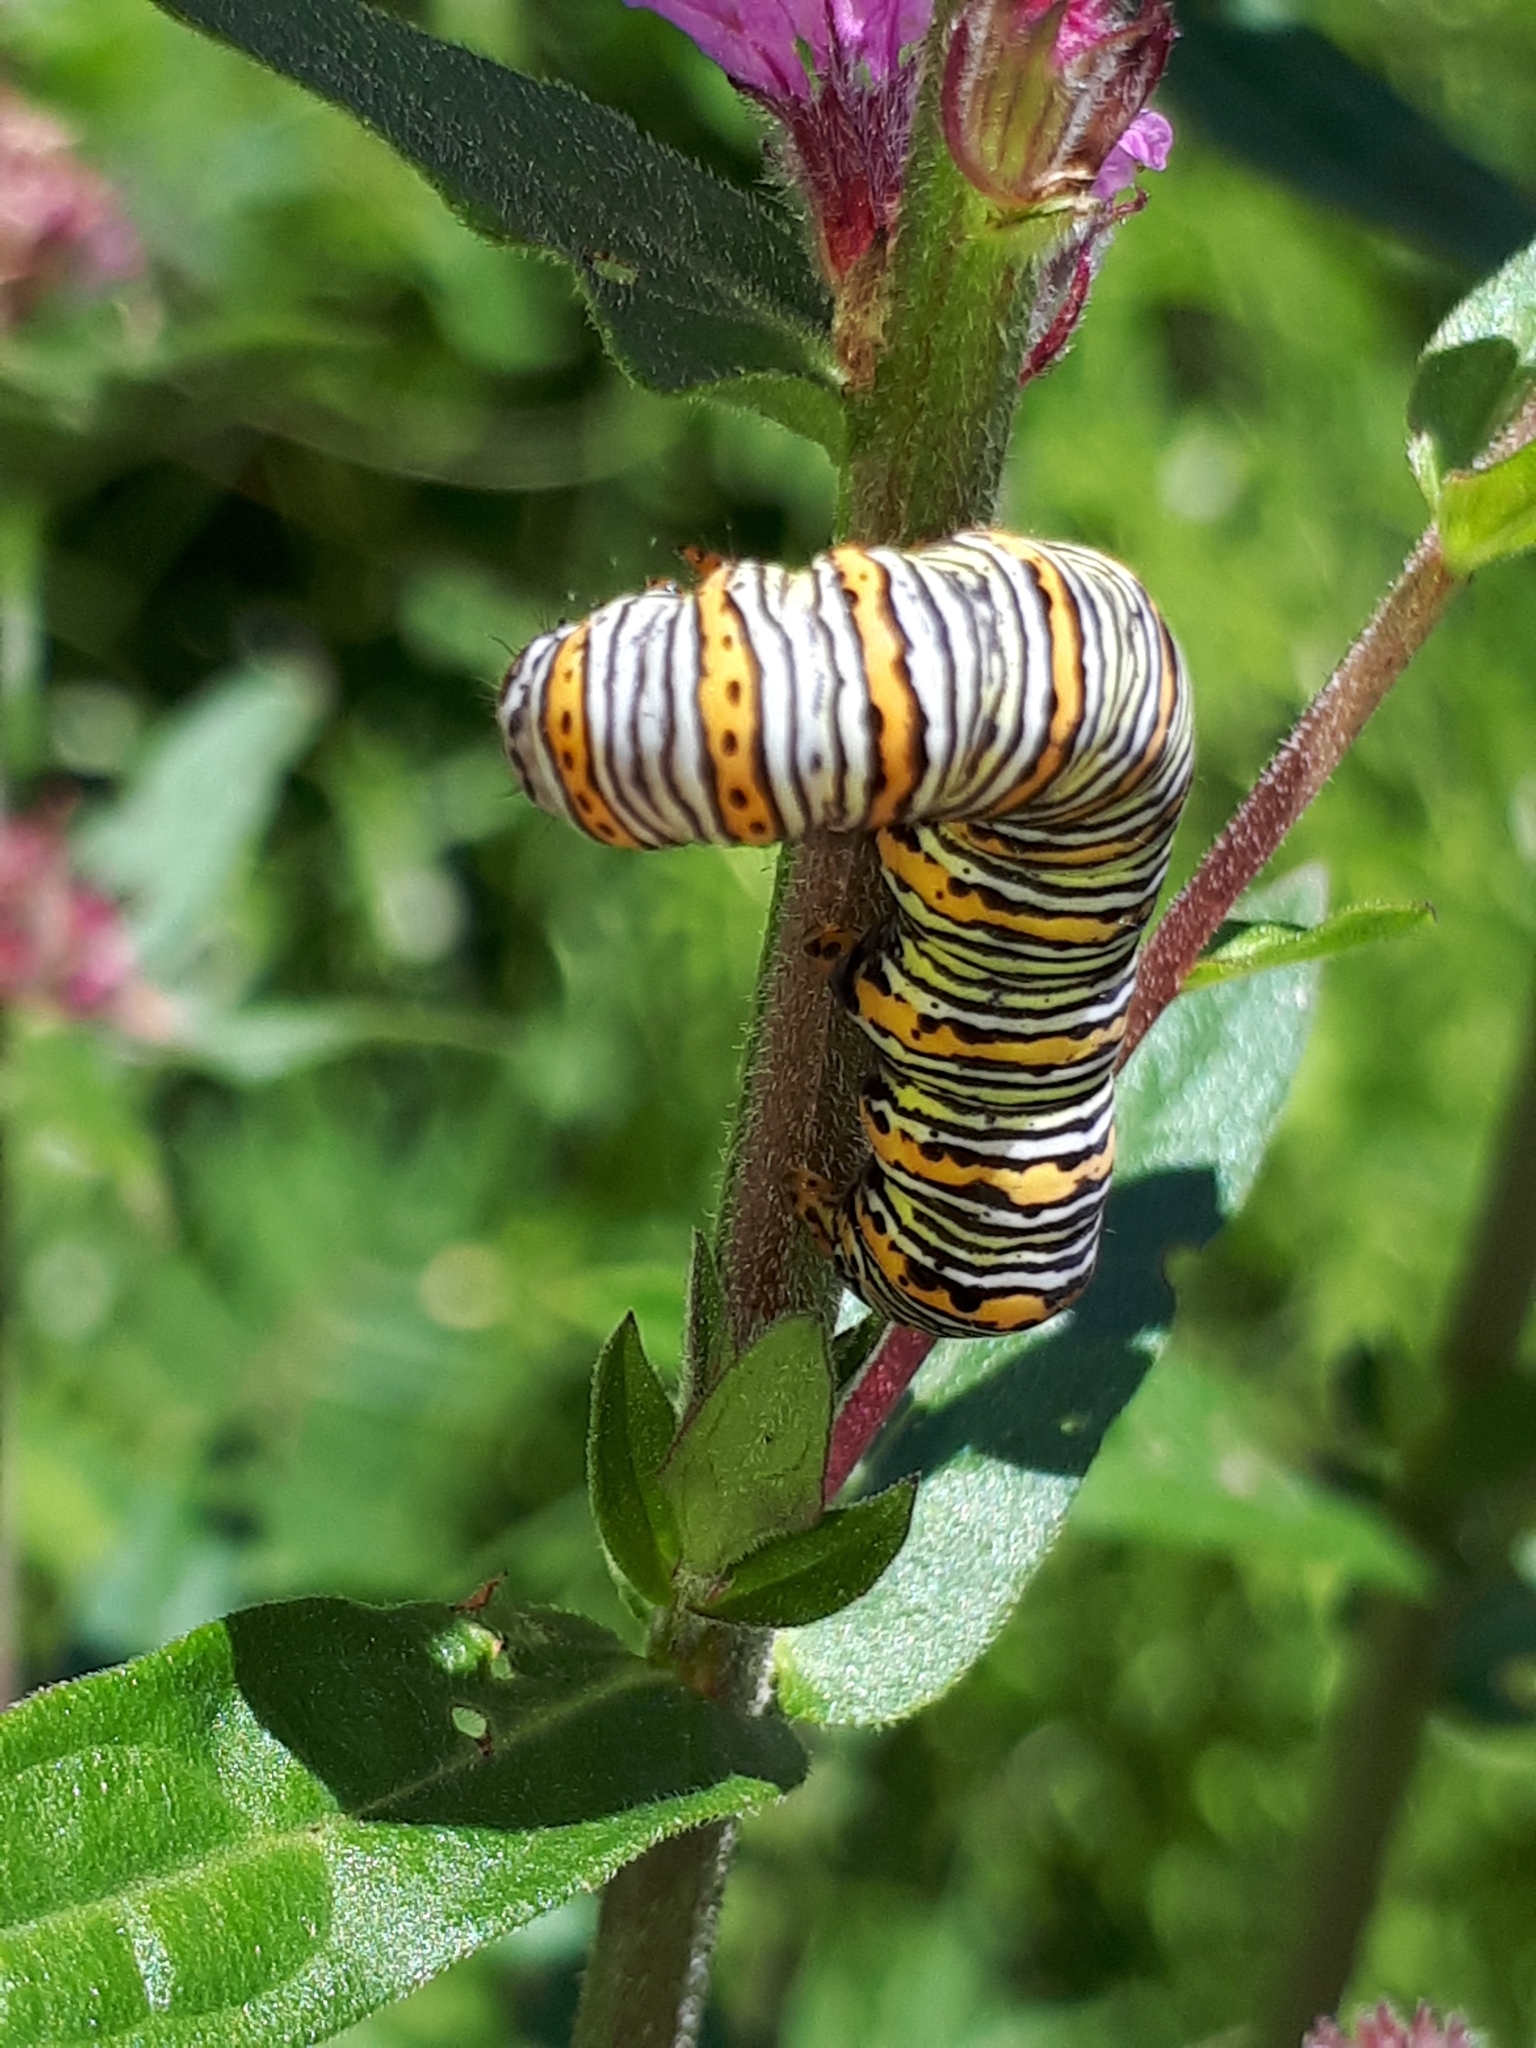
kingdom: Animalia
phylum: Arthropoda
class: Insecta
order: Lepidoptera
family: Noctuidae
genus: Eudryas
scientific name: Eudryas unio
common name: Pearly wood-nymph
